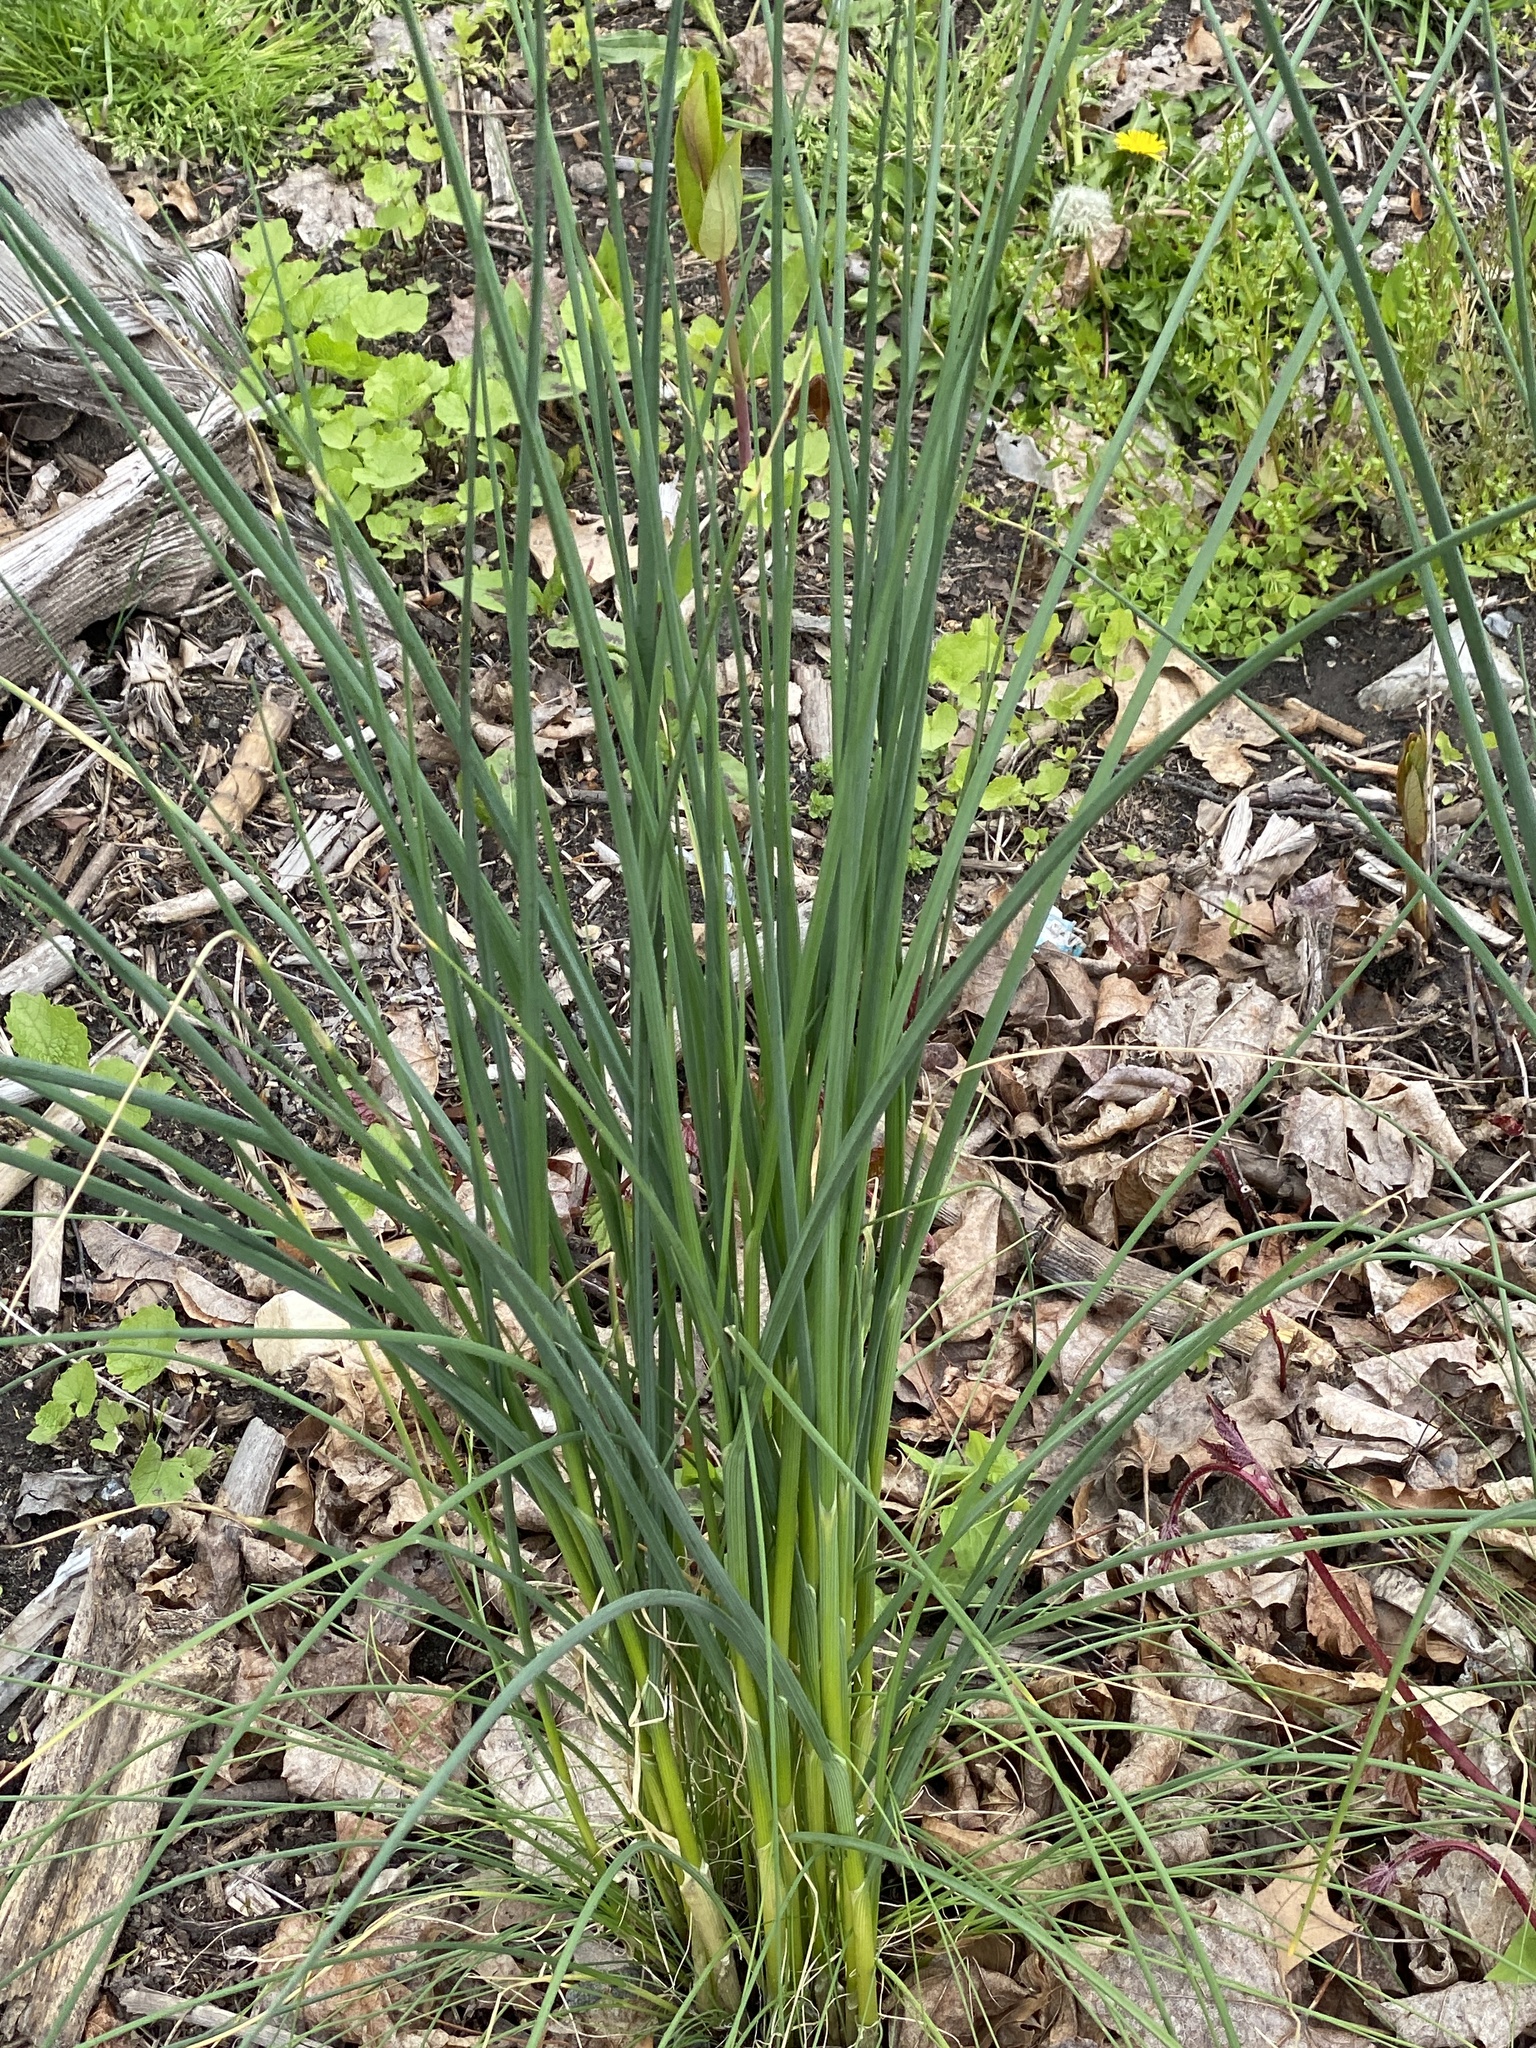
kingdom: Plantae
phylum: Tracheophyta
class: Liliopsida
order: Asparagales
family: Amaryllidaceae
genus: Allium
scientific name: Allium vineale
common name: Crow garlic
